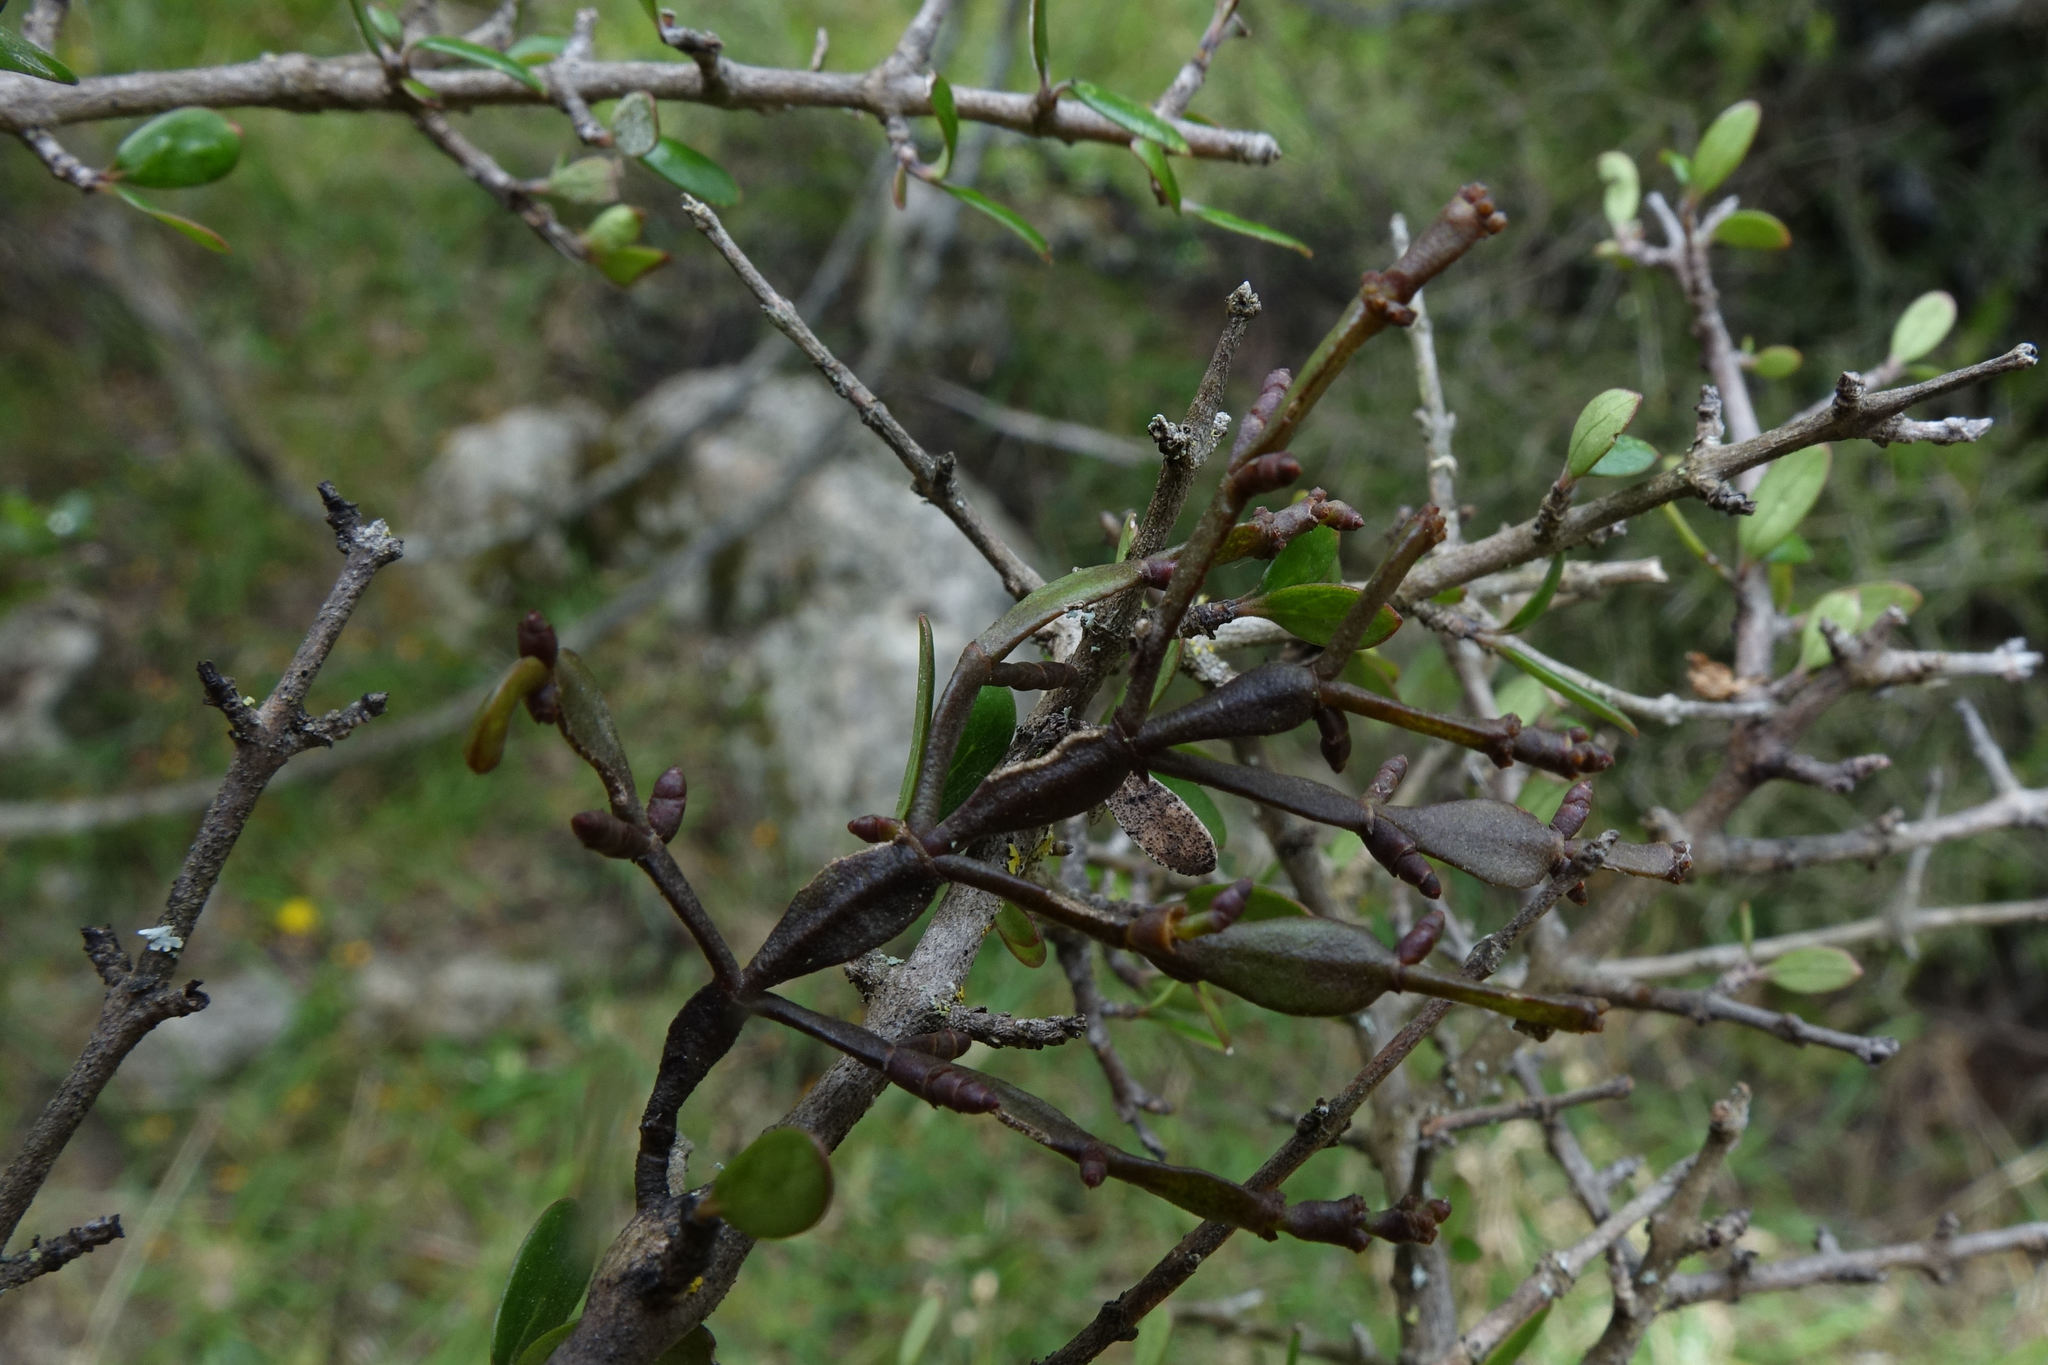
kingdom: Plantae
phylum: Tracheophyta
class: Magnoliopsida
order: Santalales
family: Viscaceae
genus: Korthalsella
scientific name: Korthalsella clavata
